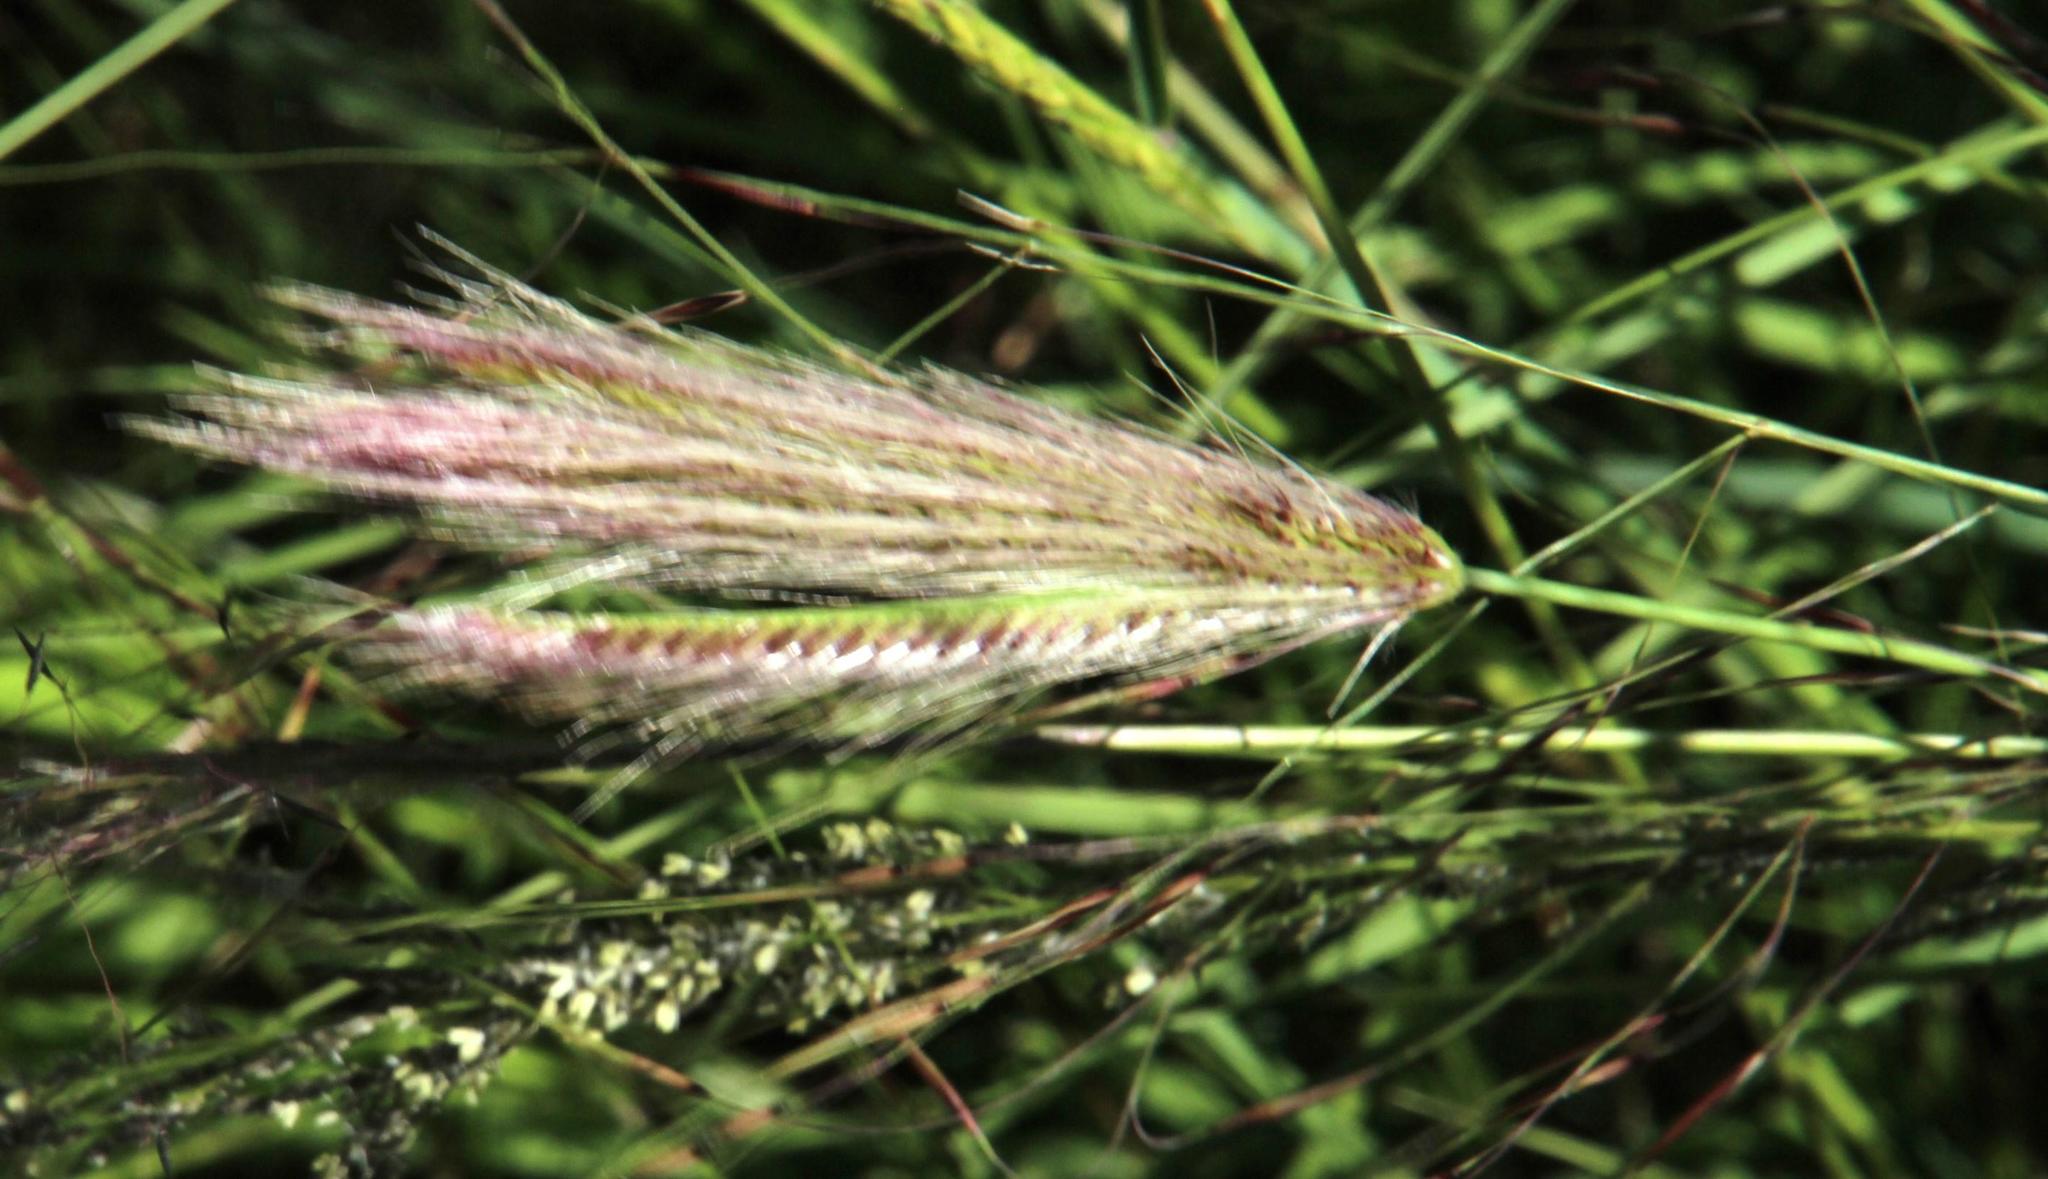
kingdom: Plantae
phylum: Tracheophyta
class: Liliopsida
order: Poales
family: Poaceae
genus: Chloris
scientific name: Chloris virgata
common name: Feathery rhodes-grass
